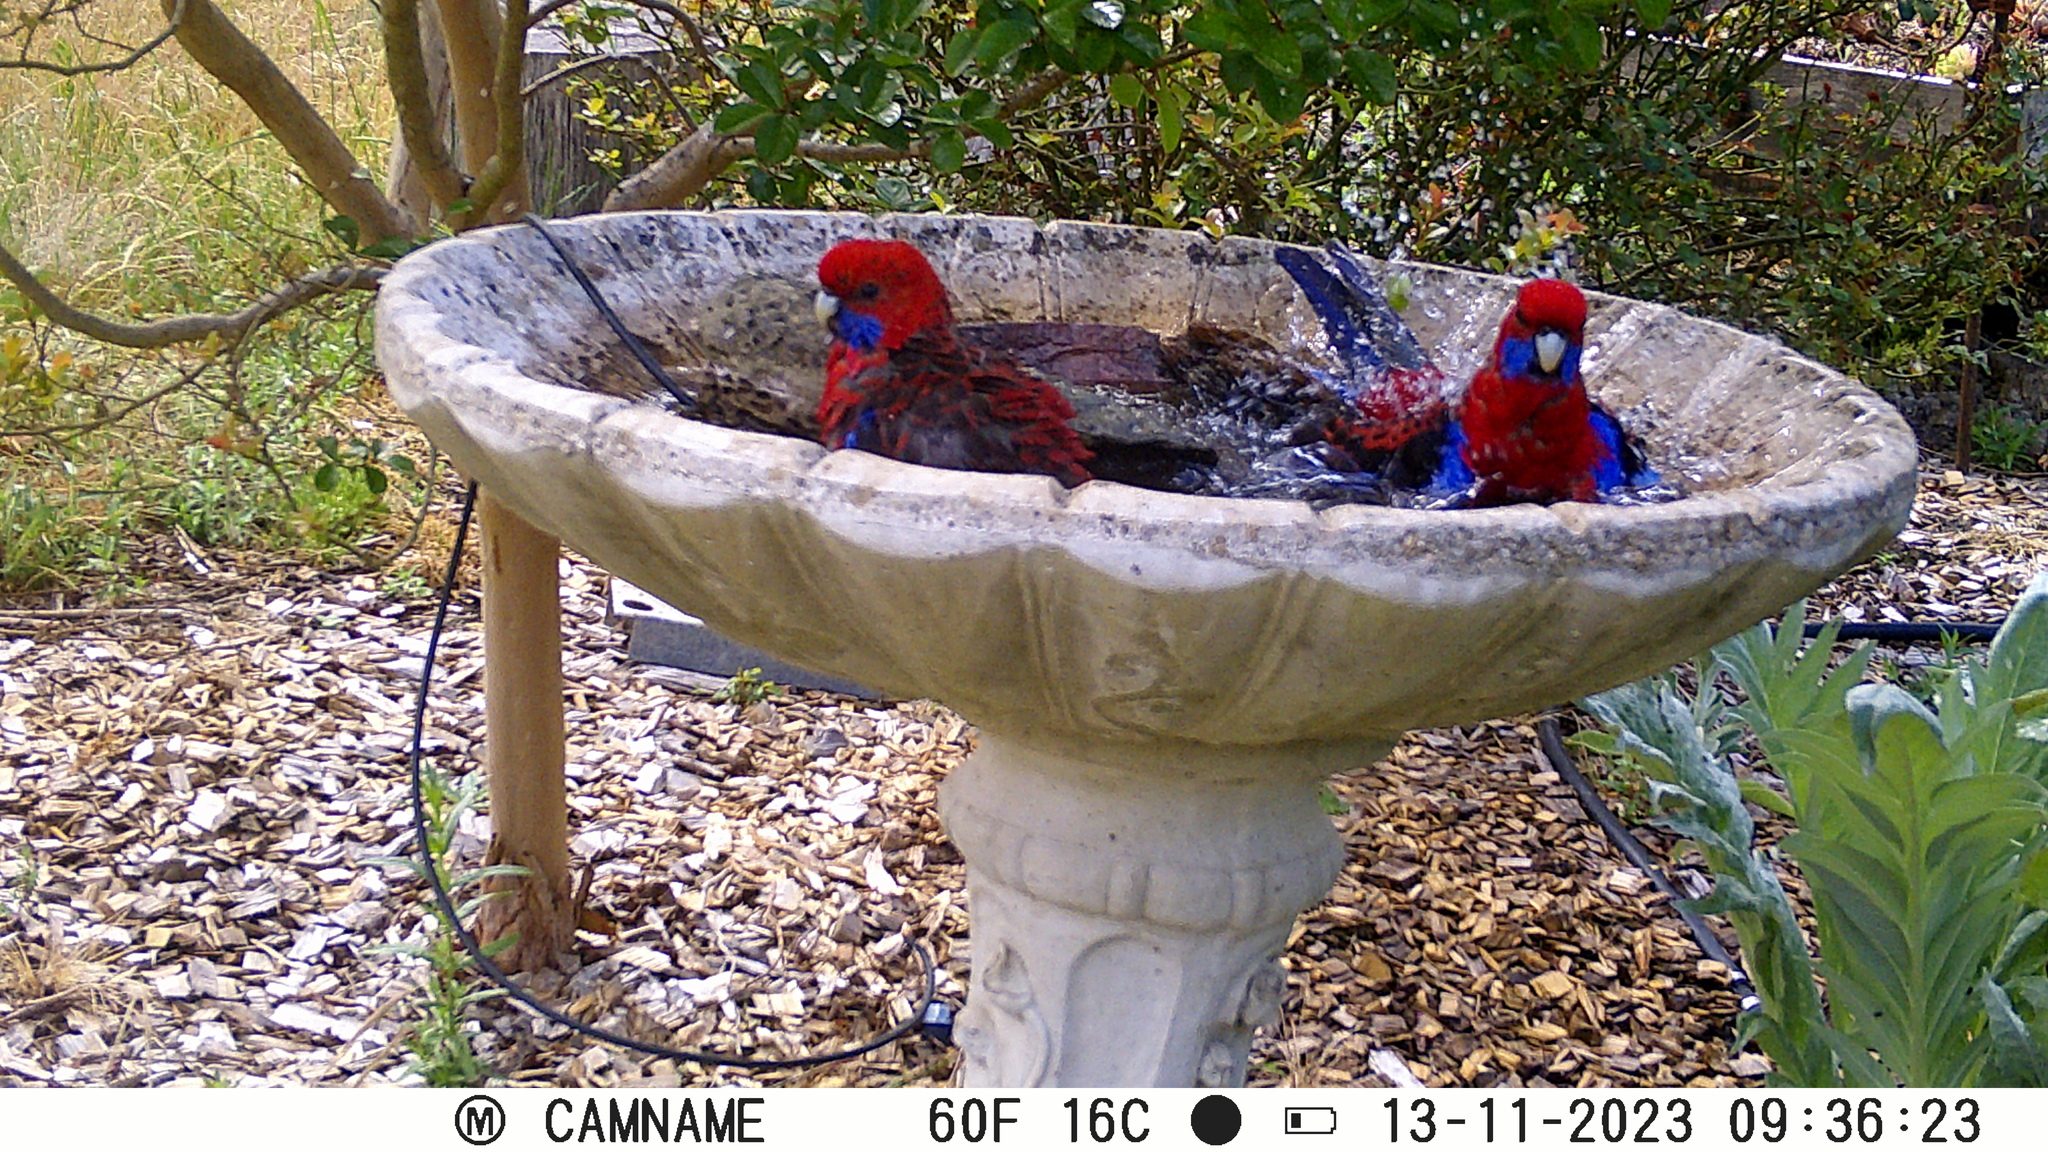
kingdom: Animalia
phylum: Chordata
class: Aves
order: Psittaciformes
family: Psittacidae
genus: Platycercus
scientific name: Platycercus elegans
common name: Crimson rosella
